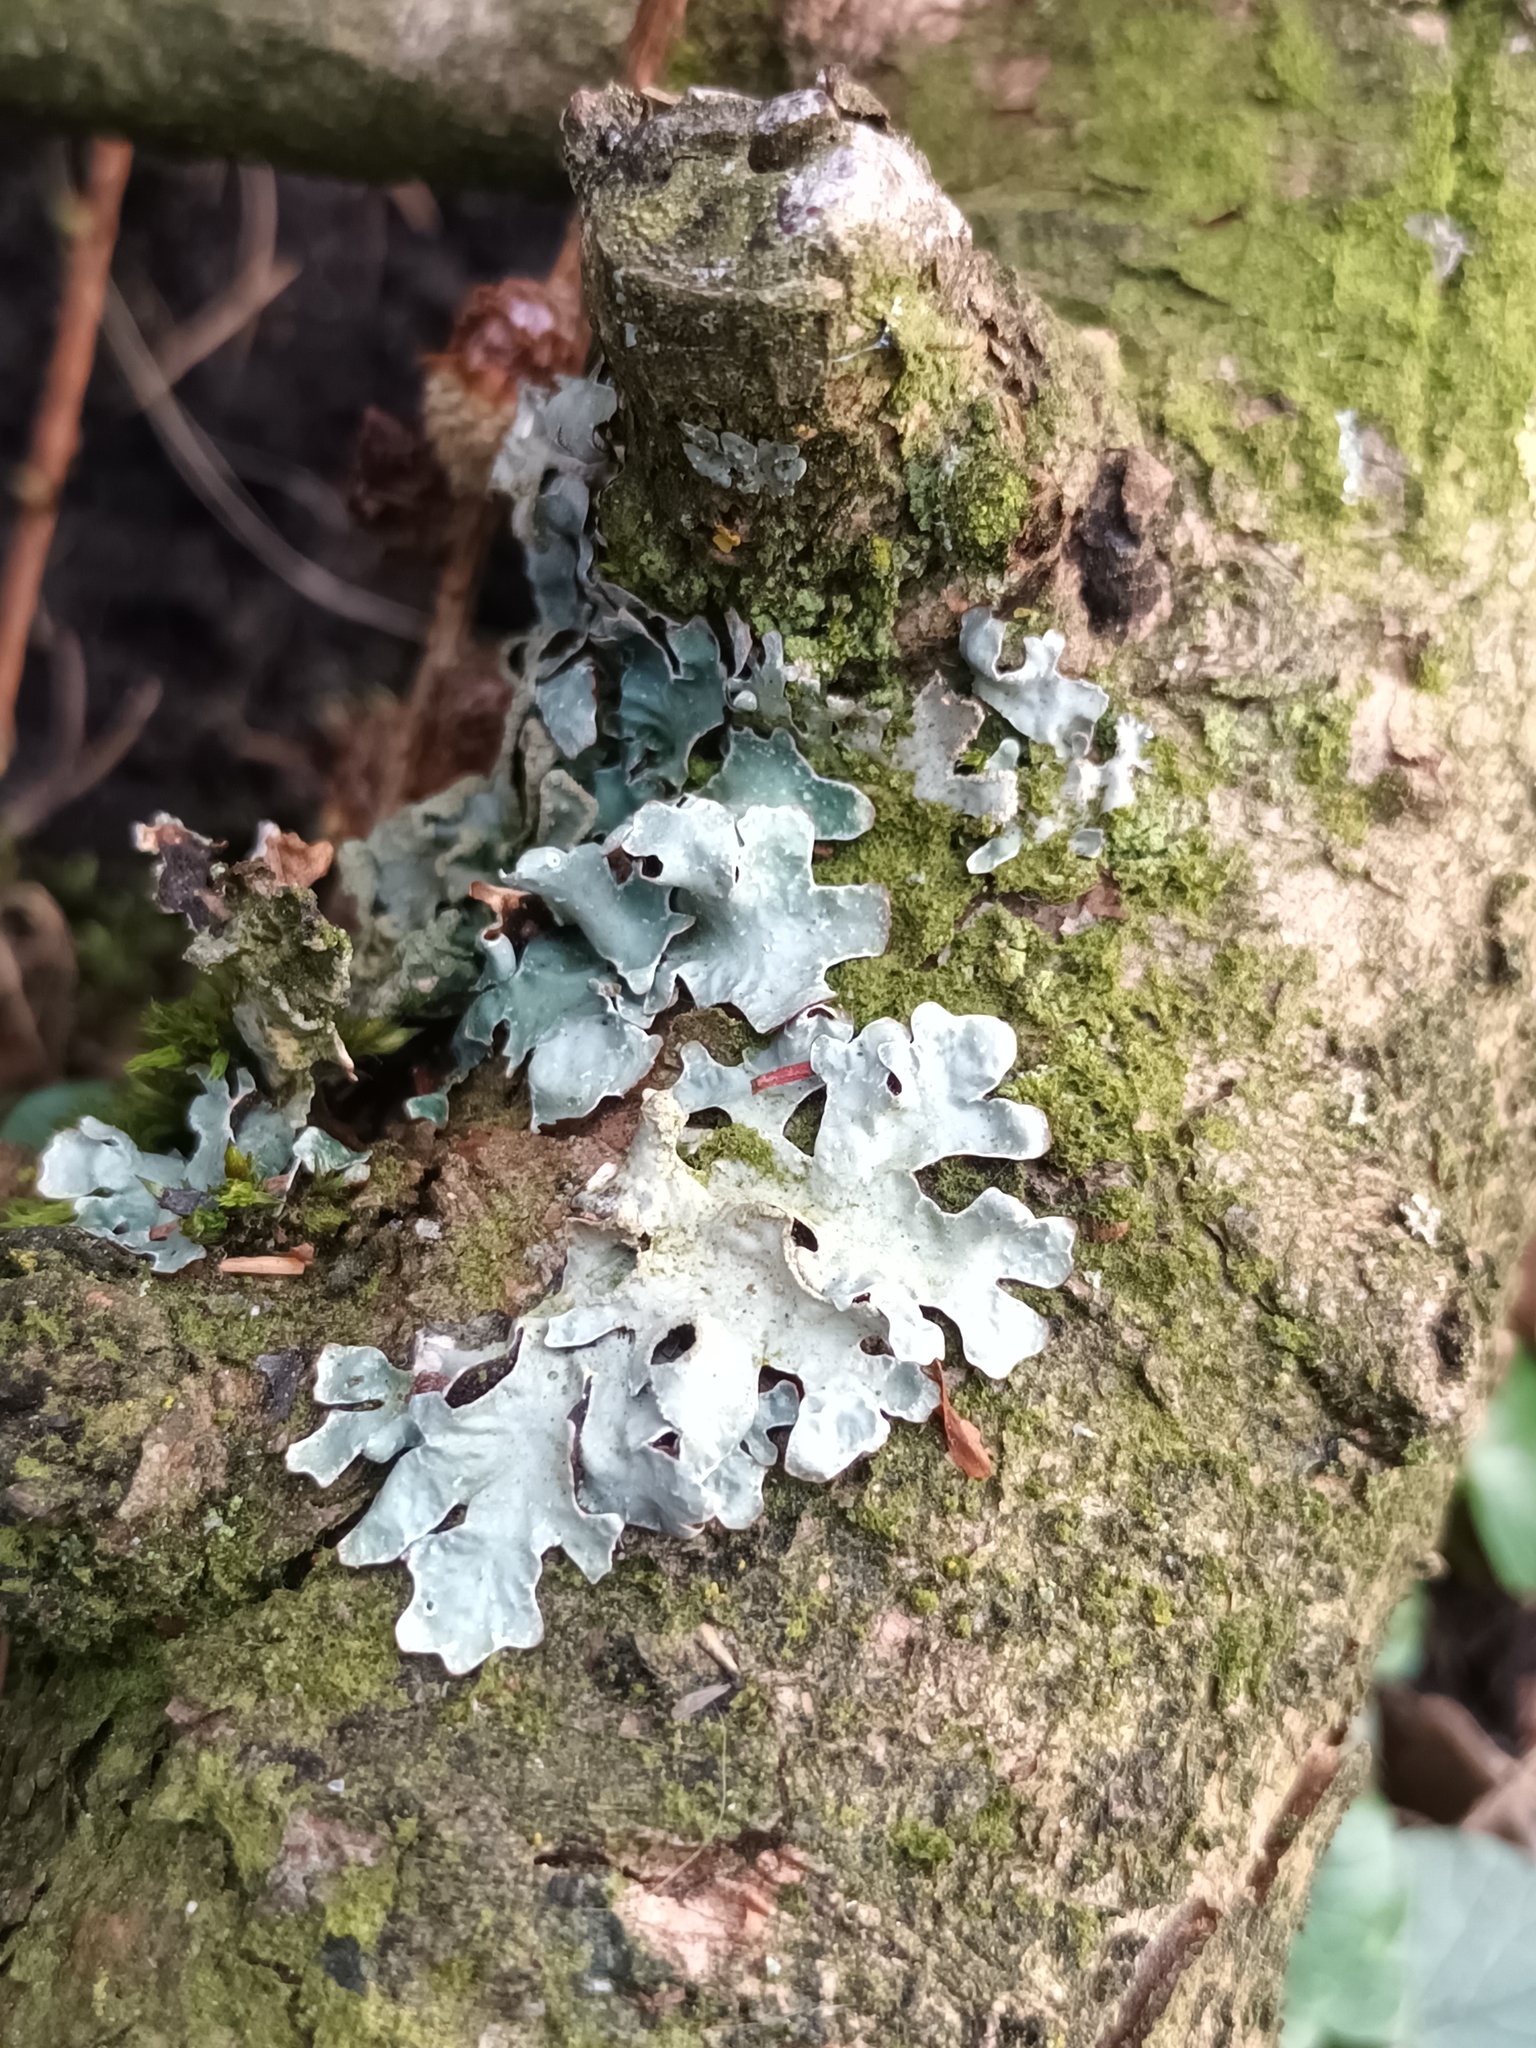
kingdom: Fungi
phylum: Ascomycota
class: Lecanoromycetes
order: Lecanorales
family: Parmeliaceae
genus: Parmelia
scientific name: Parmelia sulcata
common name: Netted shield lichen
